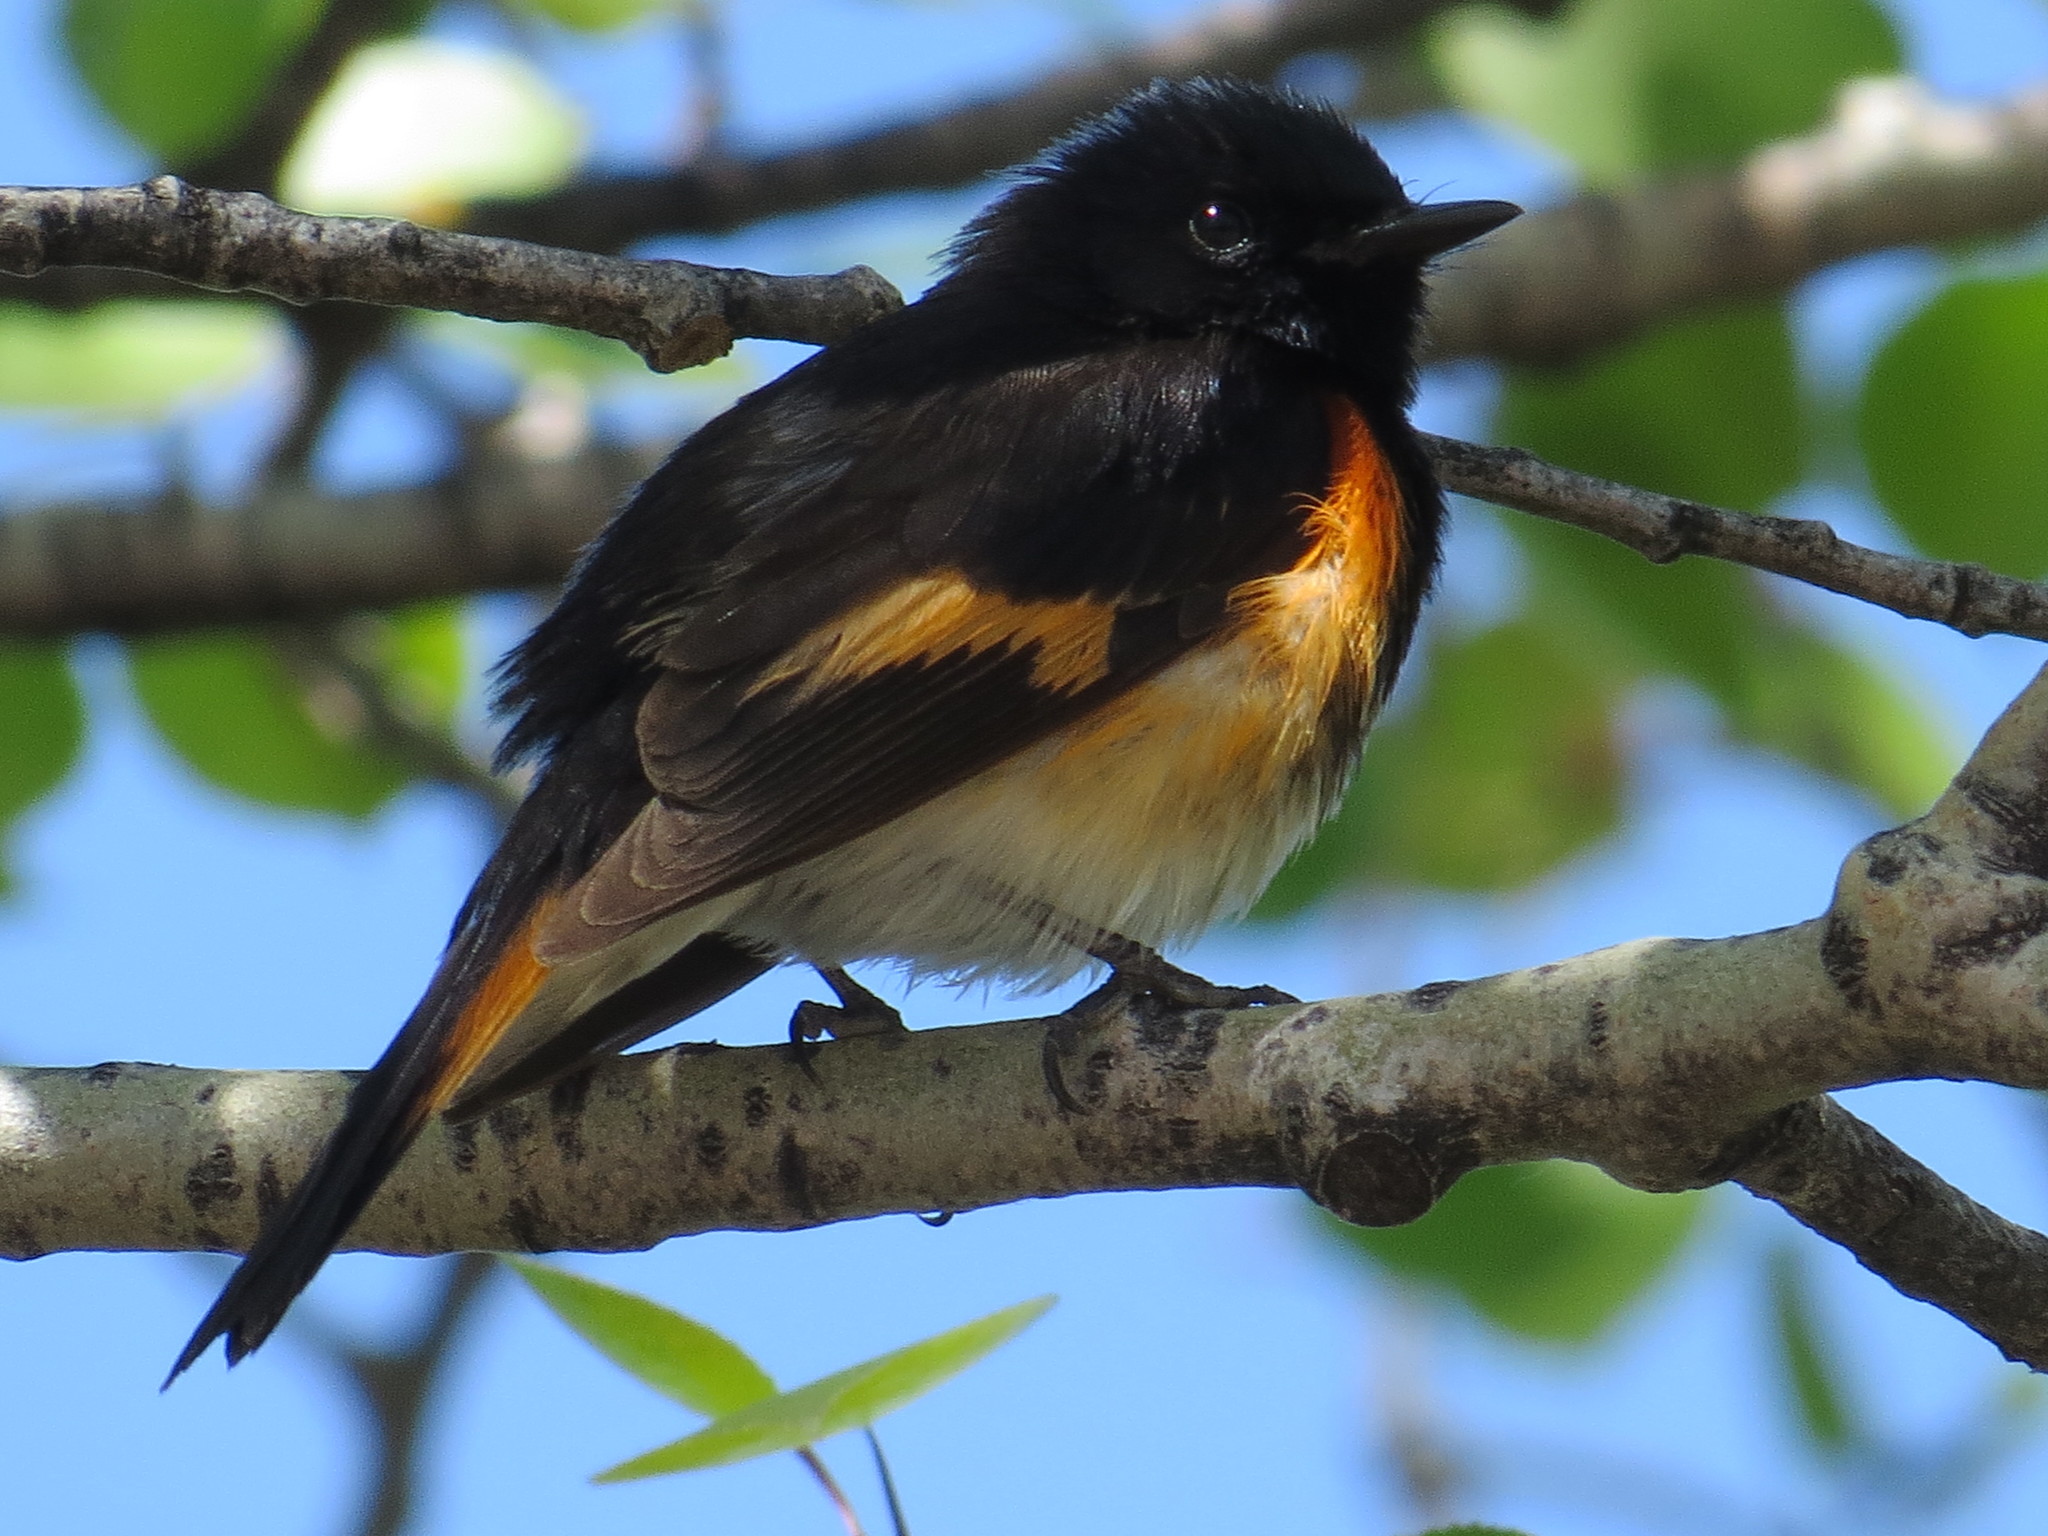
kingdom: Animalia
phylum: Chordata
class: Aves
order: Passeriformes
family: Parulidae
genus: Setophaga
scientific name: Setophaga ruticilla
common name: American redstart
